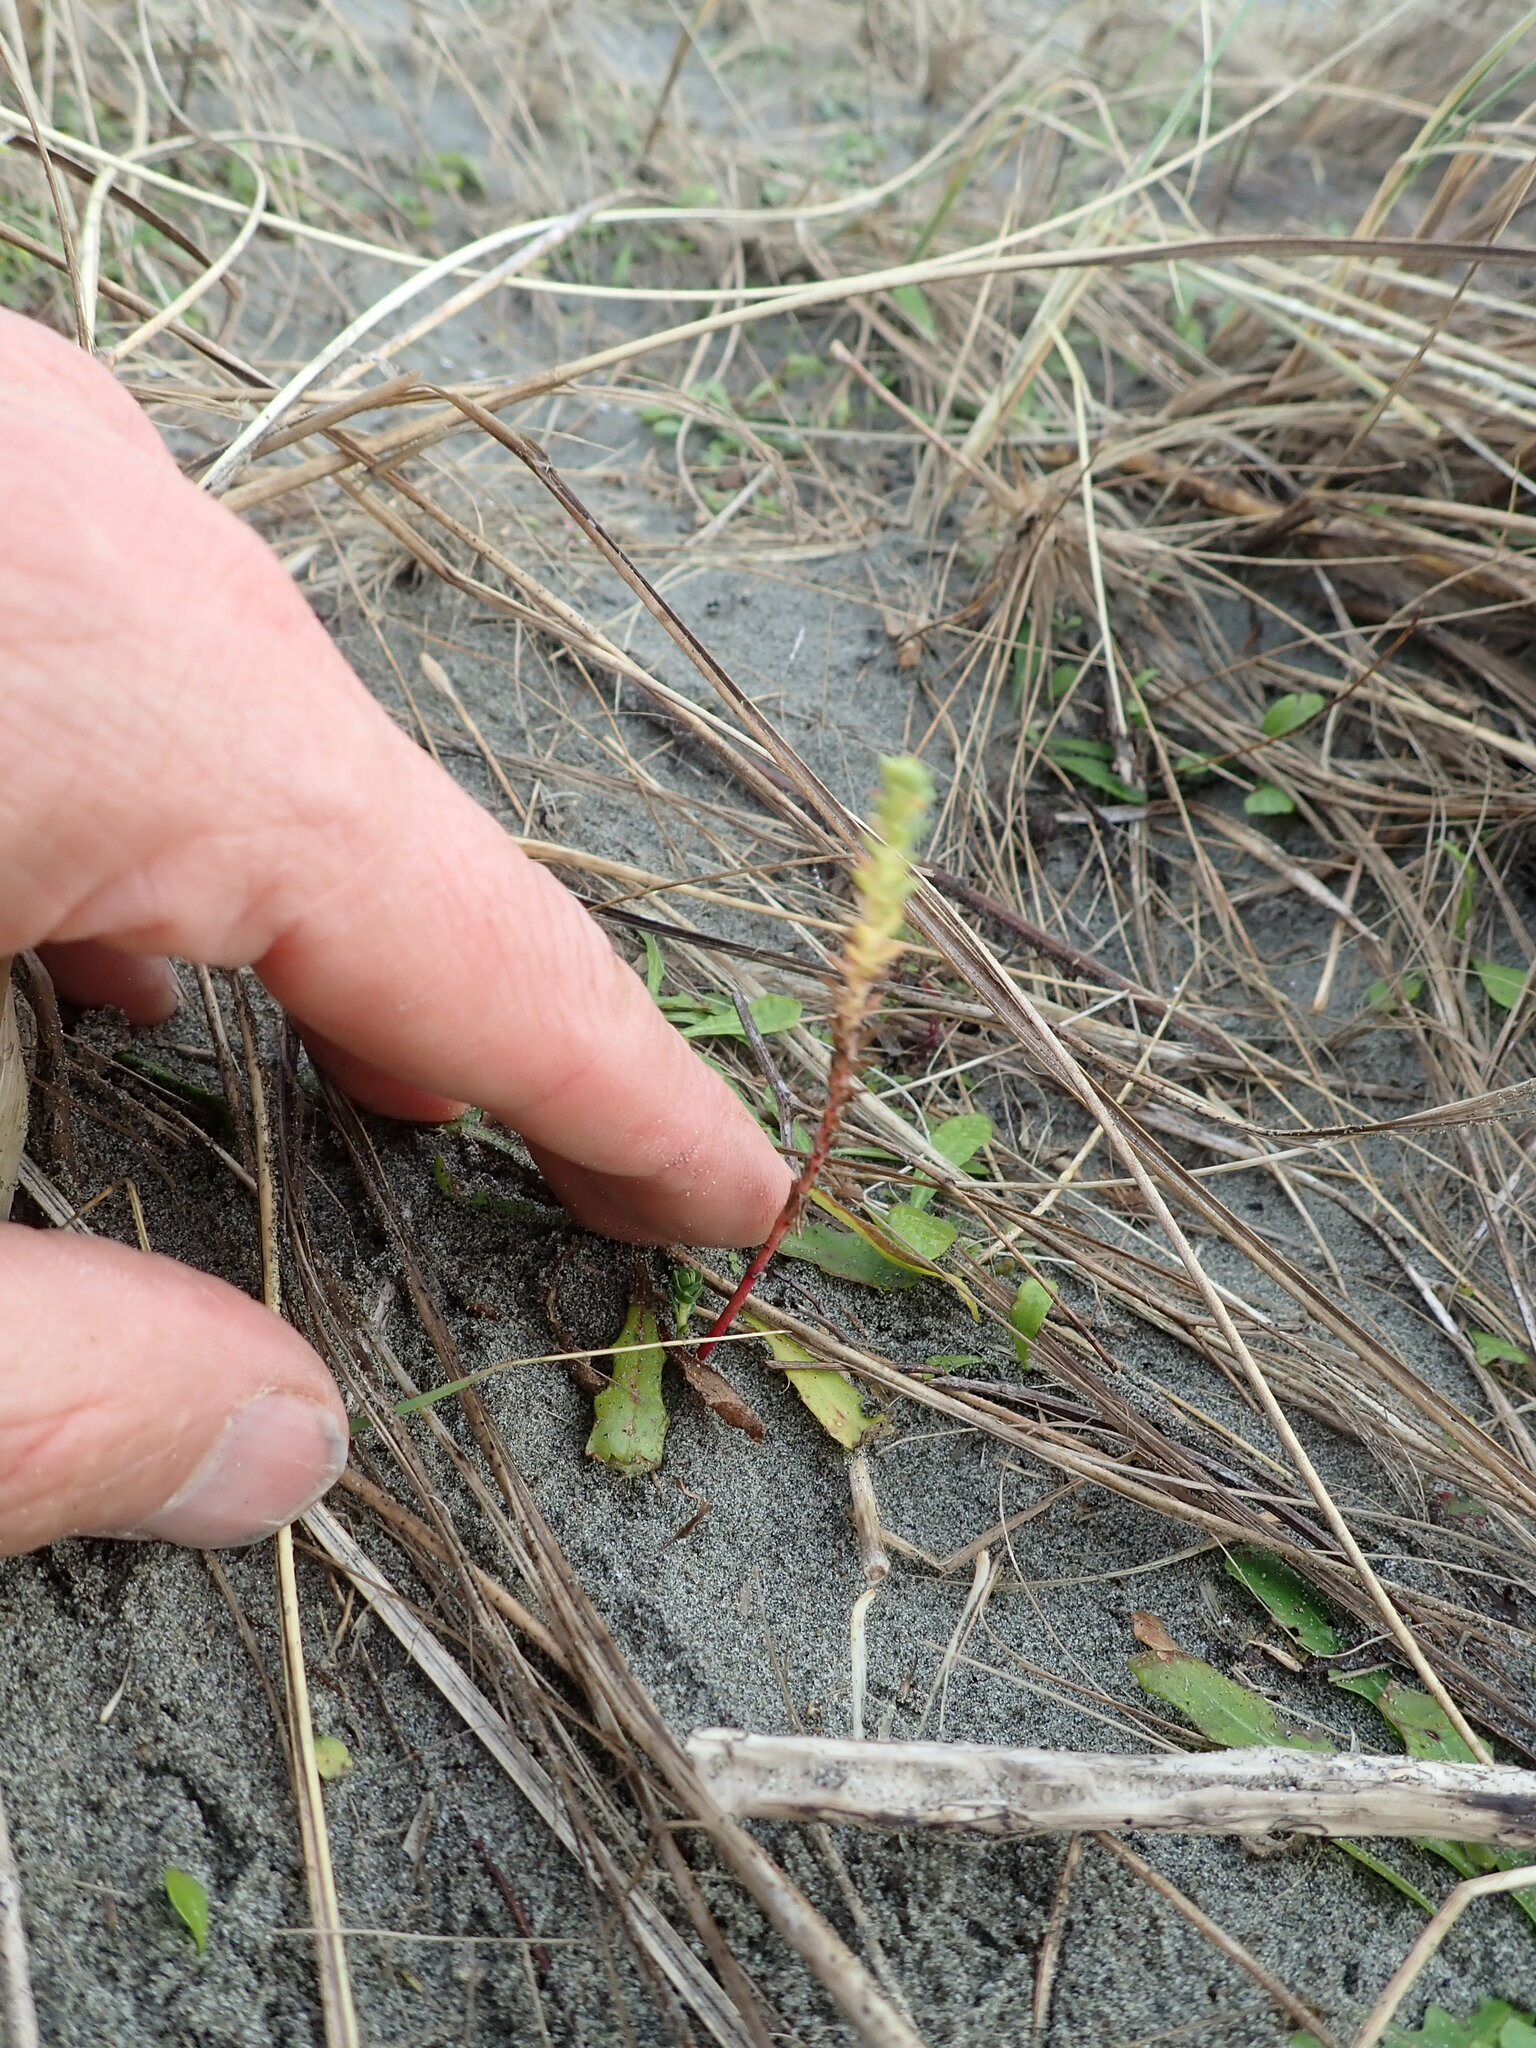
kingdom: Plantae
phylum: Tracheophyta
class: Magnoliopsida
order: Malpighiales
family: Euphorbiaceae
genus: Euphorbia
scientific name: Euphorbia paralias
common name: Sea spurge
